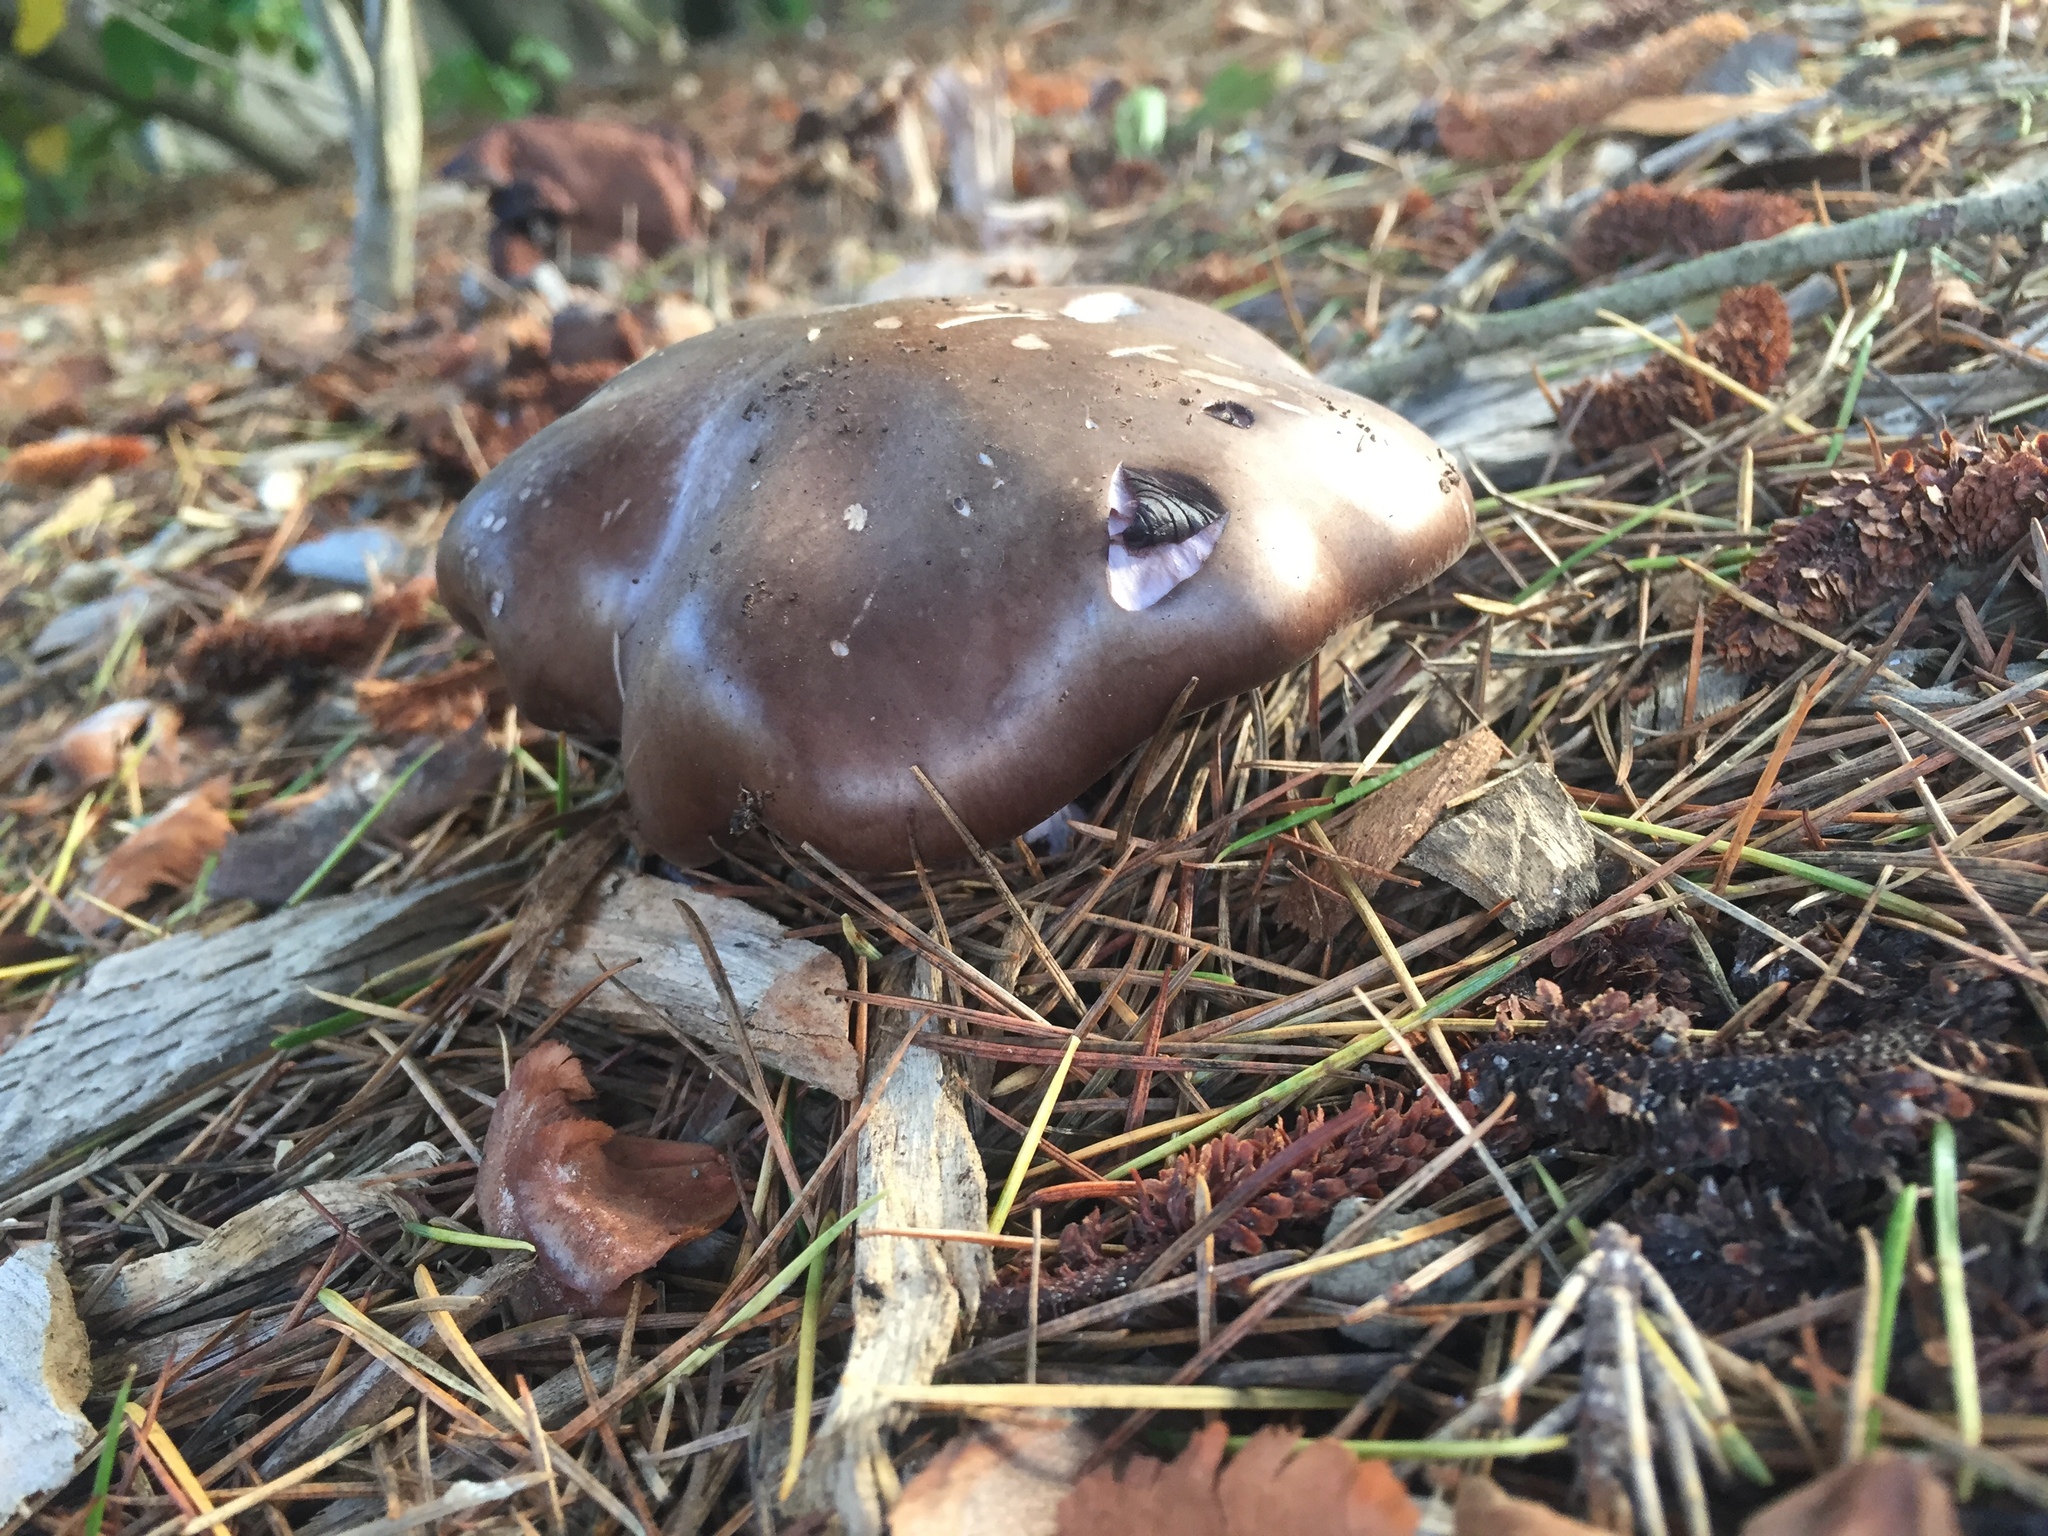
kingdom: Fungi
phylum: Basidiomycota
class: Agaricomycetes
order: Agaricales
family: Tricholomataceae
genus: Collybia
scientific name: Collybia
